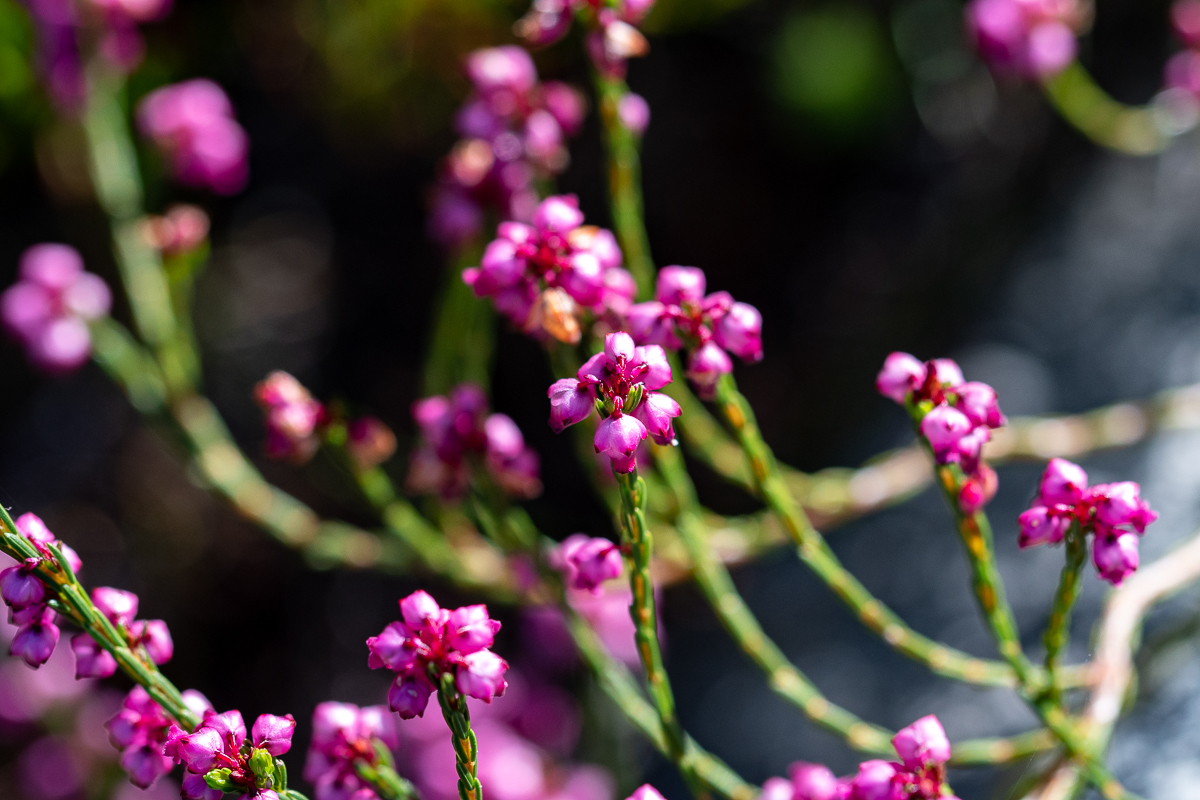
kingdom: Plantae
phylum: Tracheophyta
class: Magnoliopsida
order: Ericales
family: Ericaceae
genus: Erica
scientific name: Erica rhopalantha
